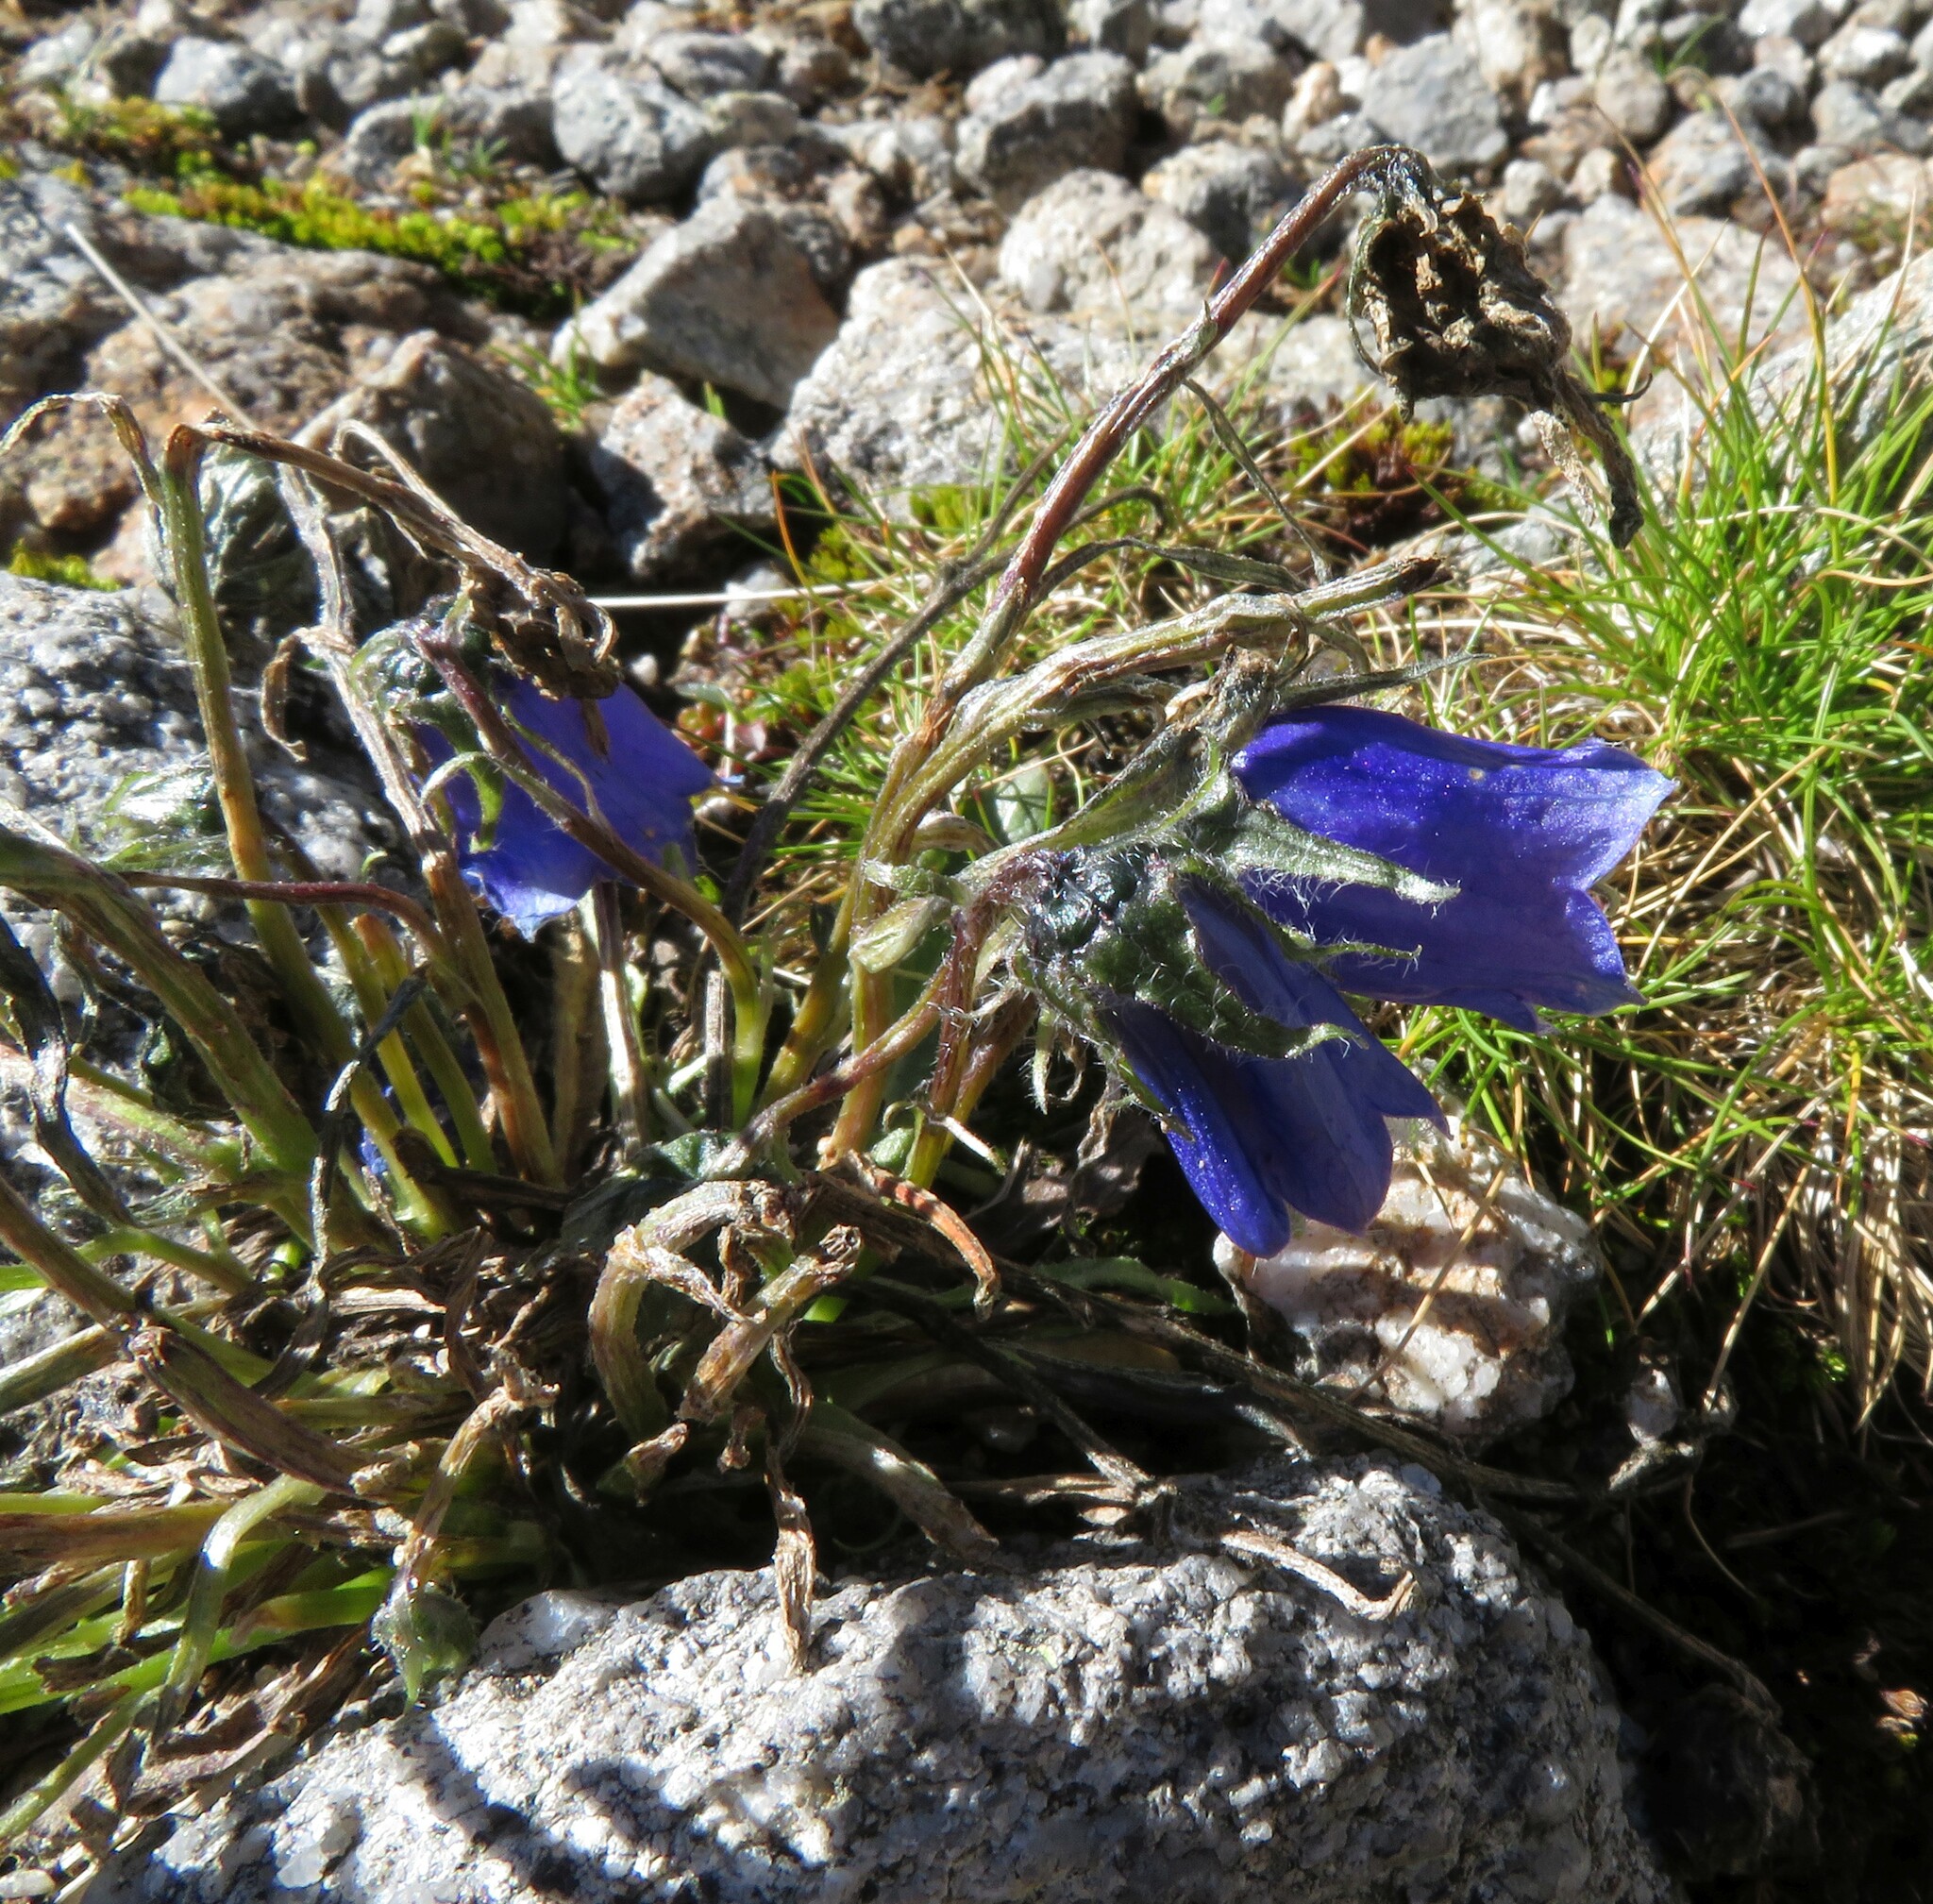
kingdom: Plantae
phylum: Tracheophyta
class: Magnoliopsida
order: Asterales
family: Campanulaceae
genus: Campanula
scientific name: Campanula alpina
